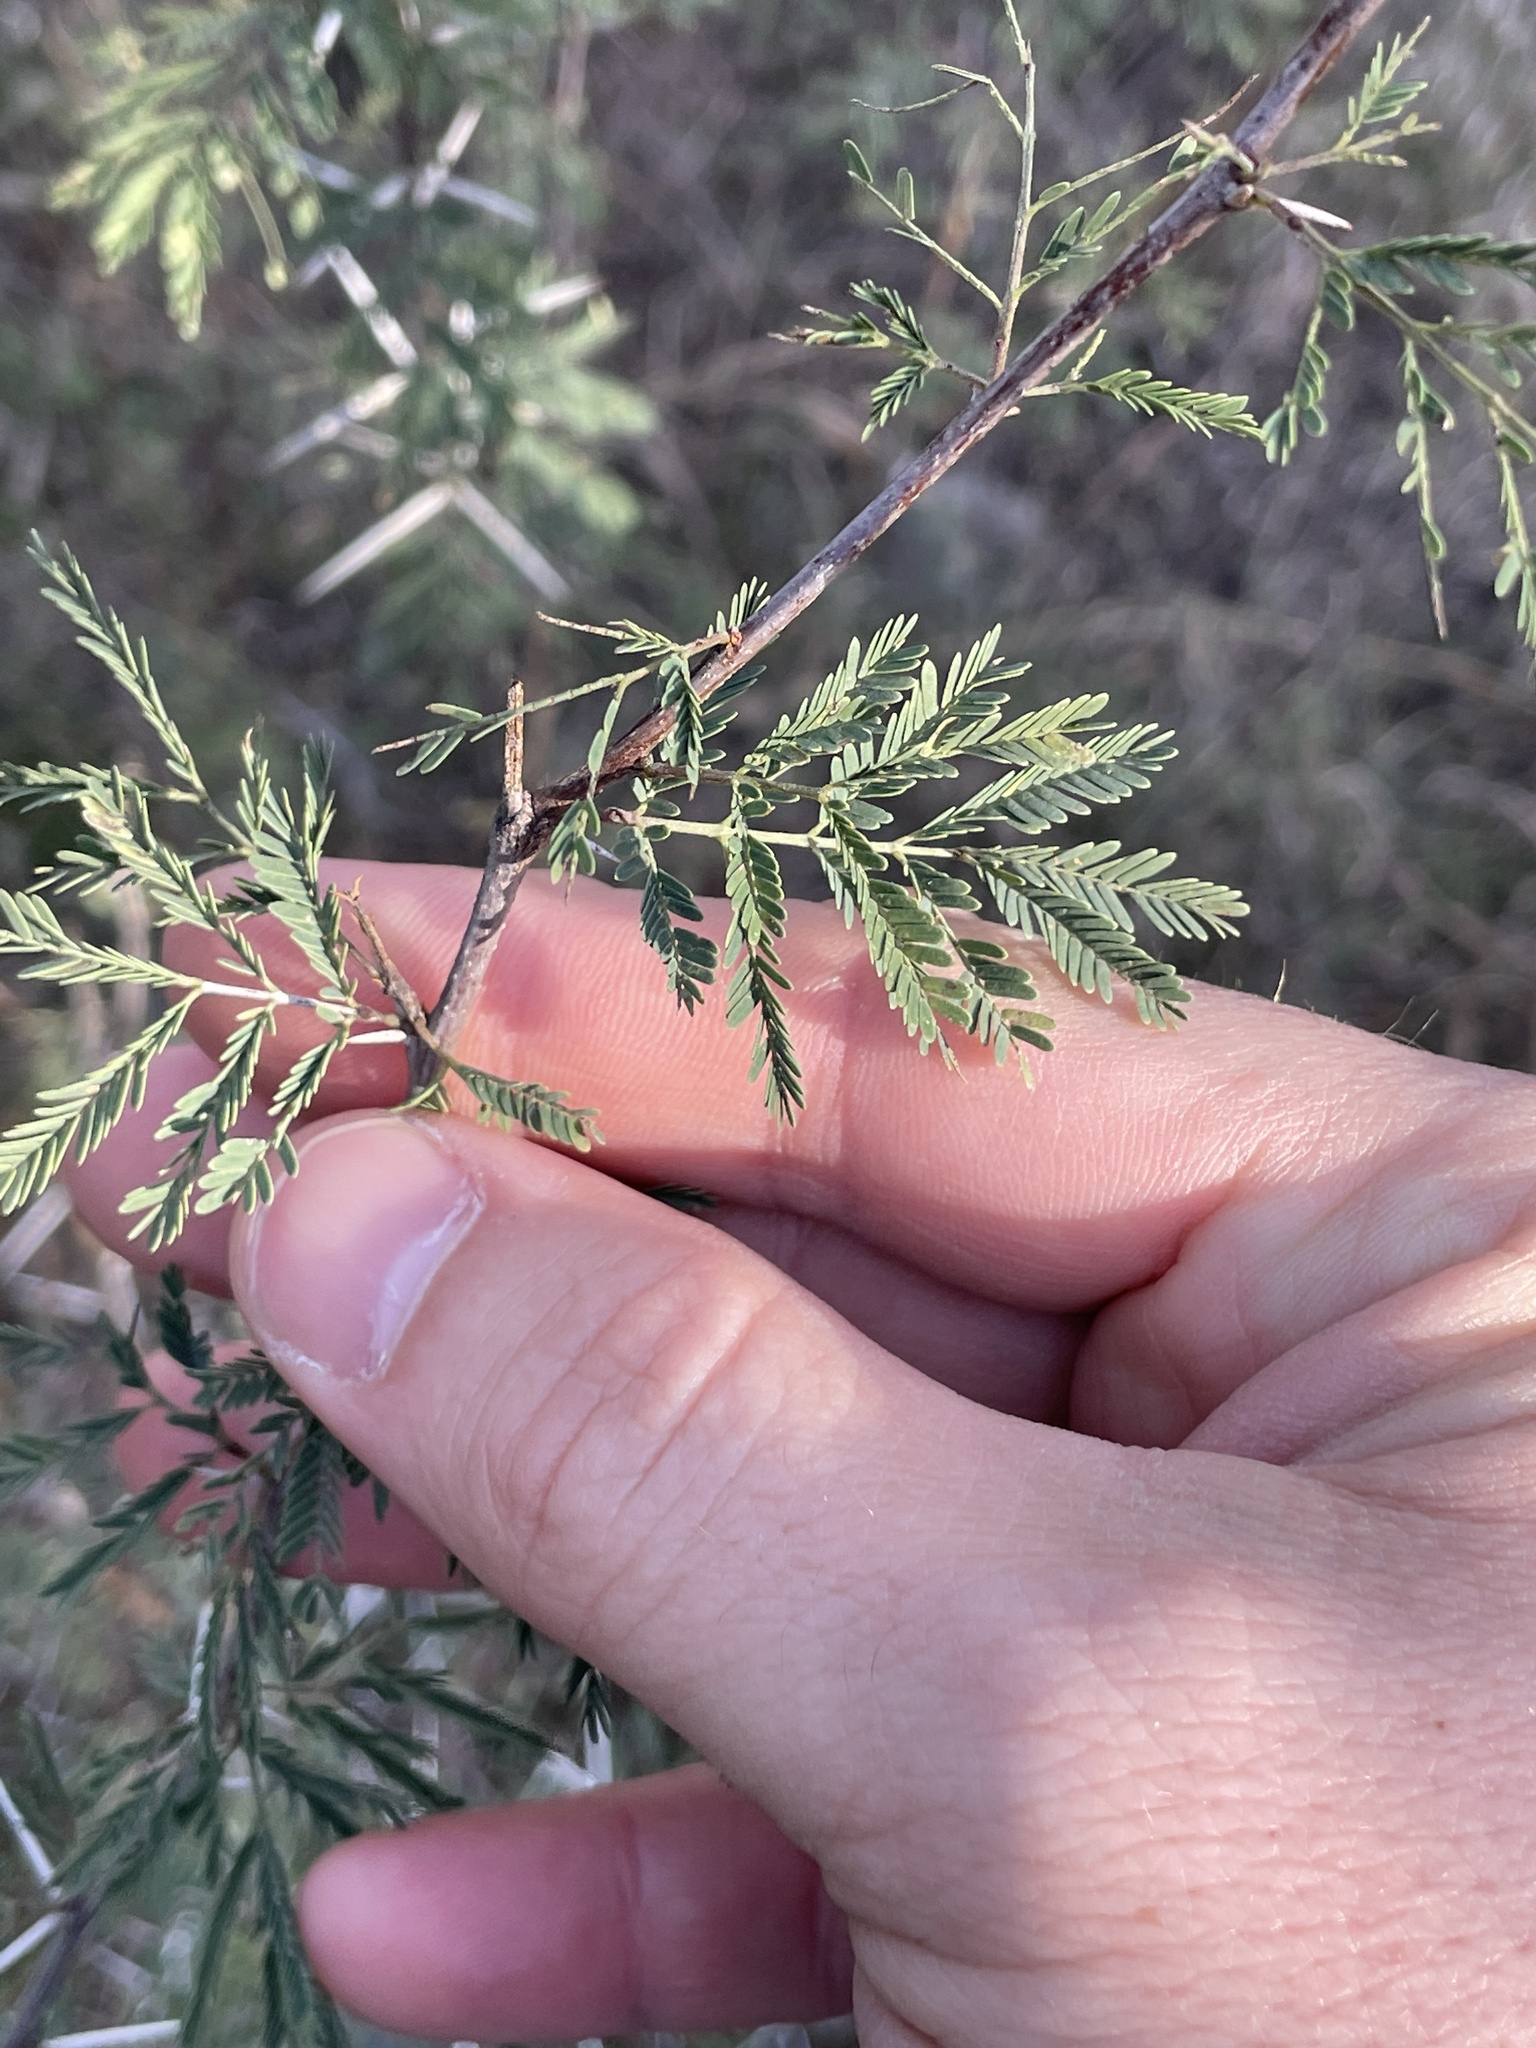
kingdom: Plantae
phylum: Tracheophyta
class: Magnoliopsida
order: Fabales
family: Fabaceae
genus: Vachellia
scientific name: Vachellia farnesiana
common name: Sweet acacia
